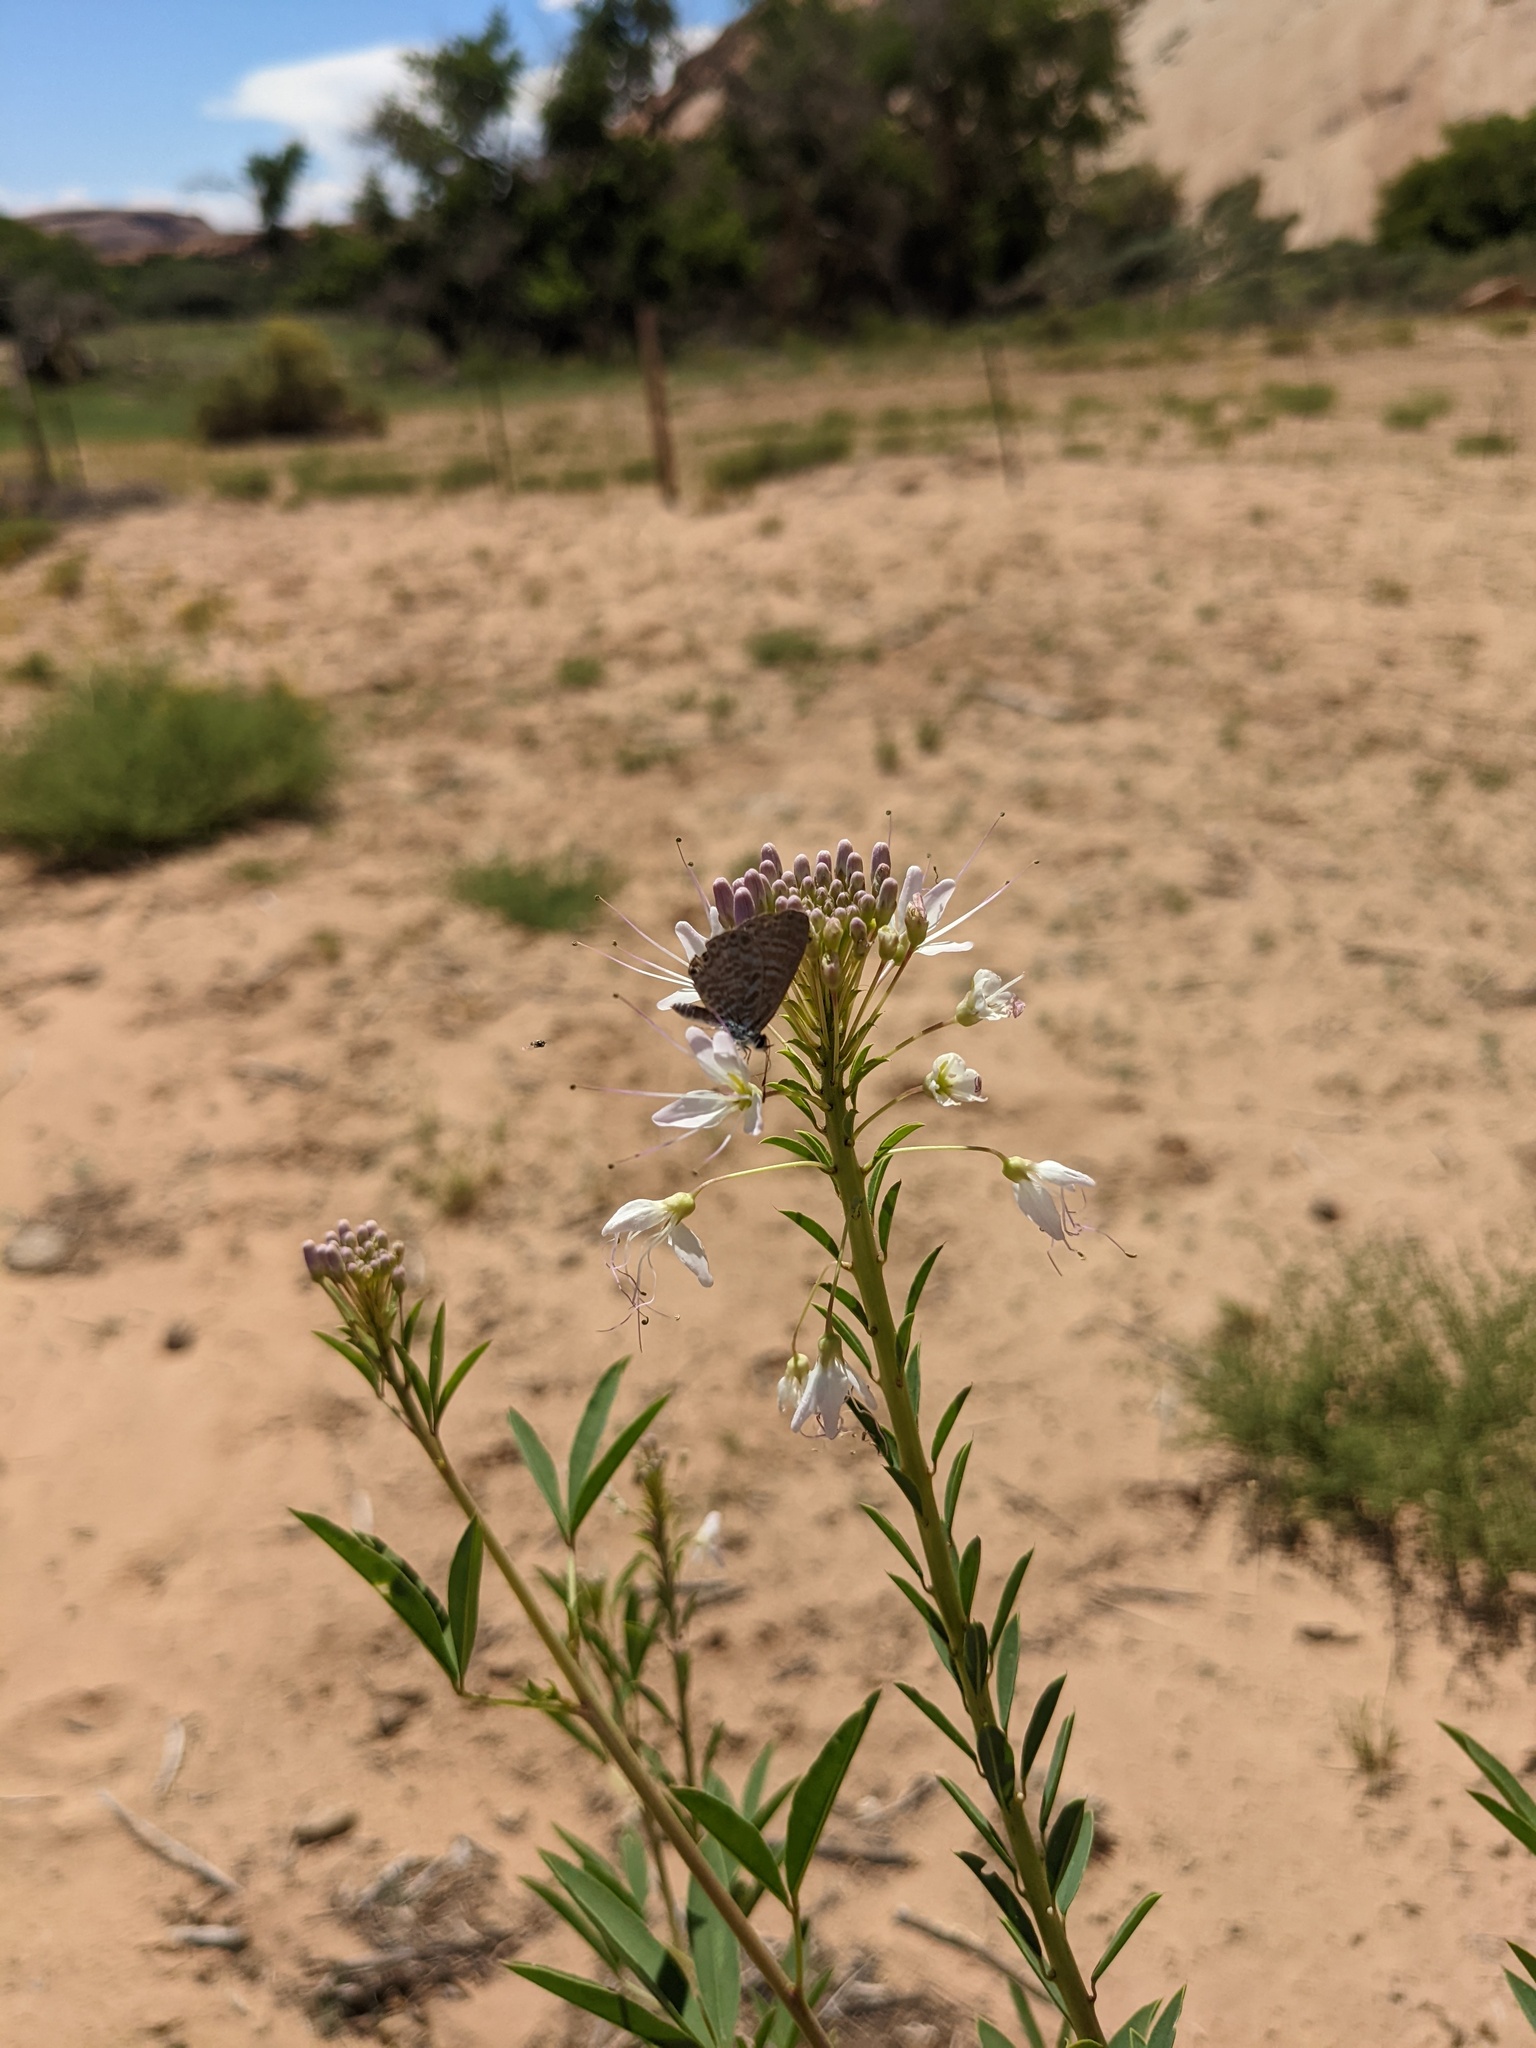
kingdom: Animalia
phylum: Arthropoda
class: Insecta
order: Lepidoptera
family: Lycaenidae
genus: Leptotes
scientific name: Leptotes marina
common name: Marine blue
